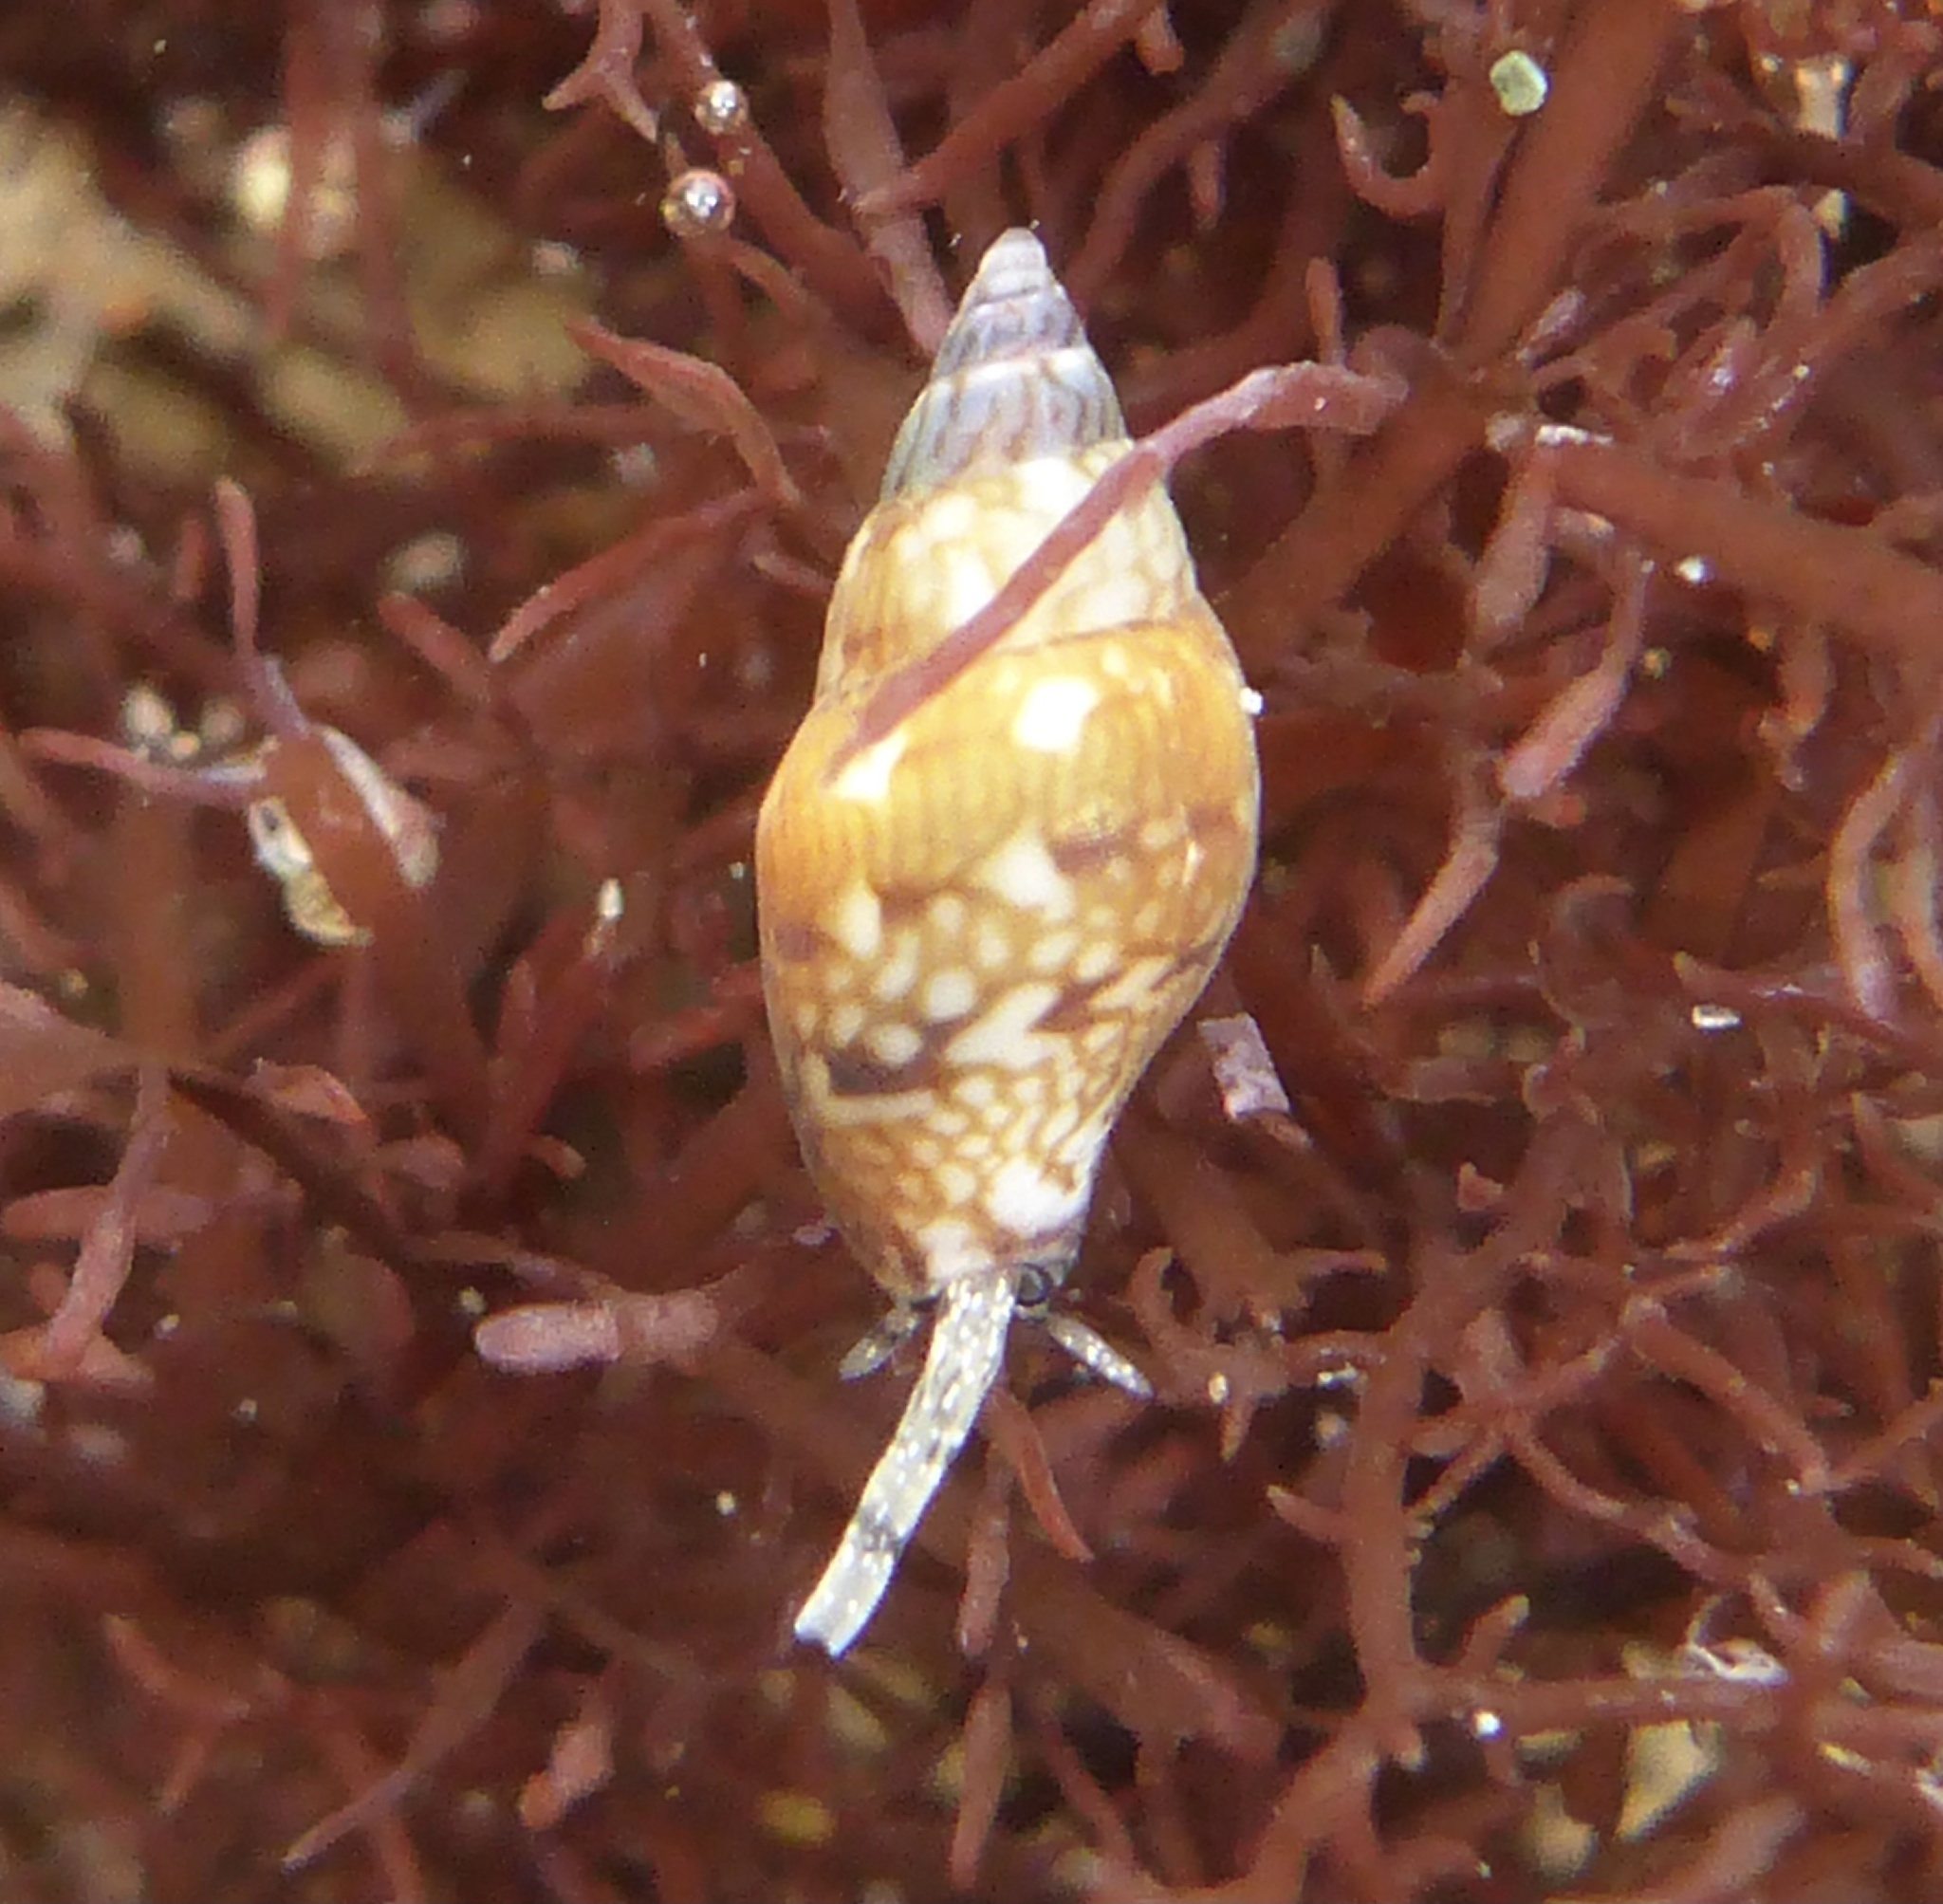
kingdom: Animalia
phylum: Mollusca
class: Gastropoda
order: Neogastropoda
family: Columbellidae
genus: Alia
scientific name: Alia carinata
